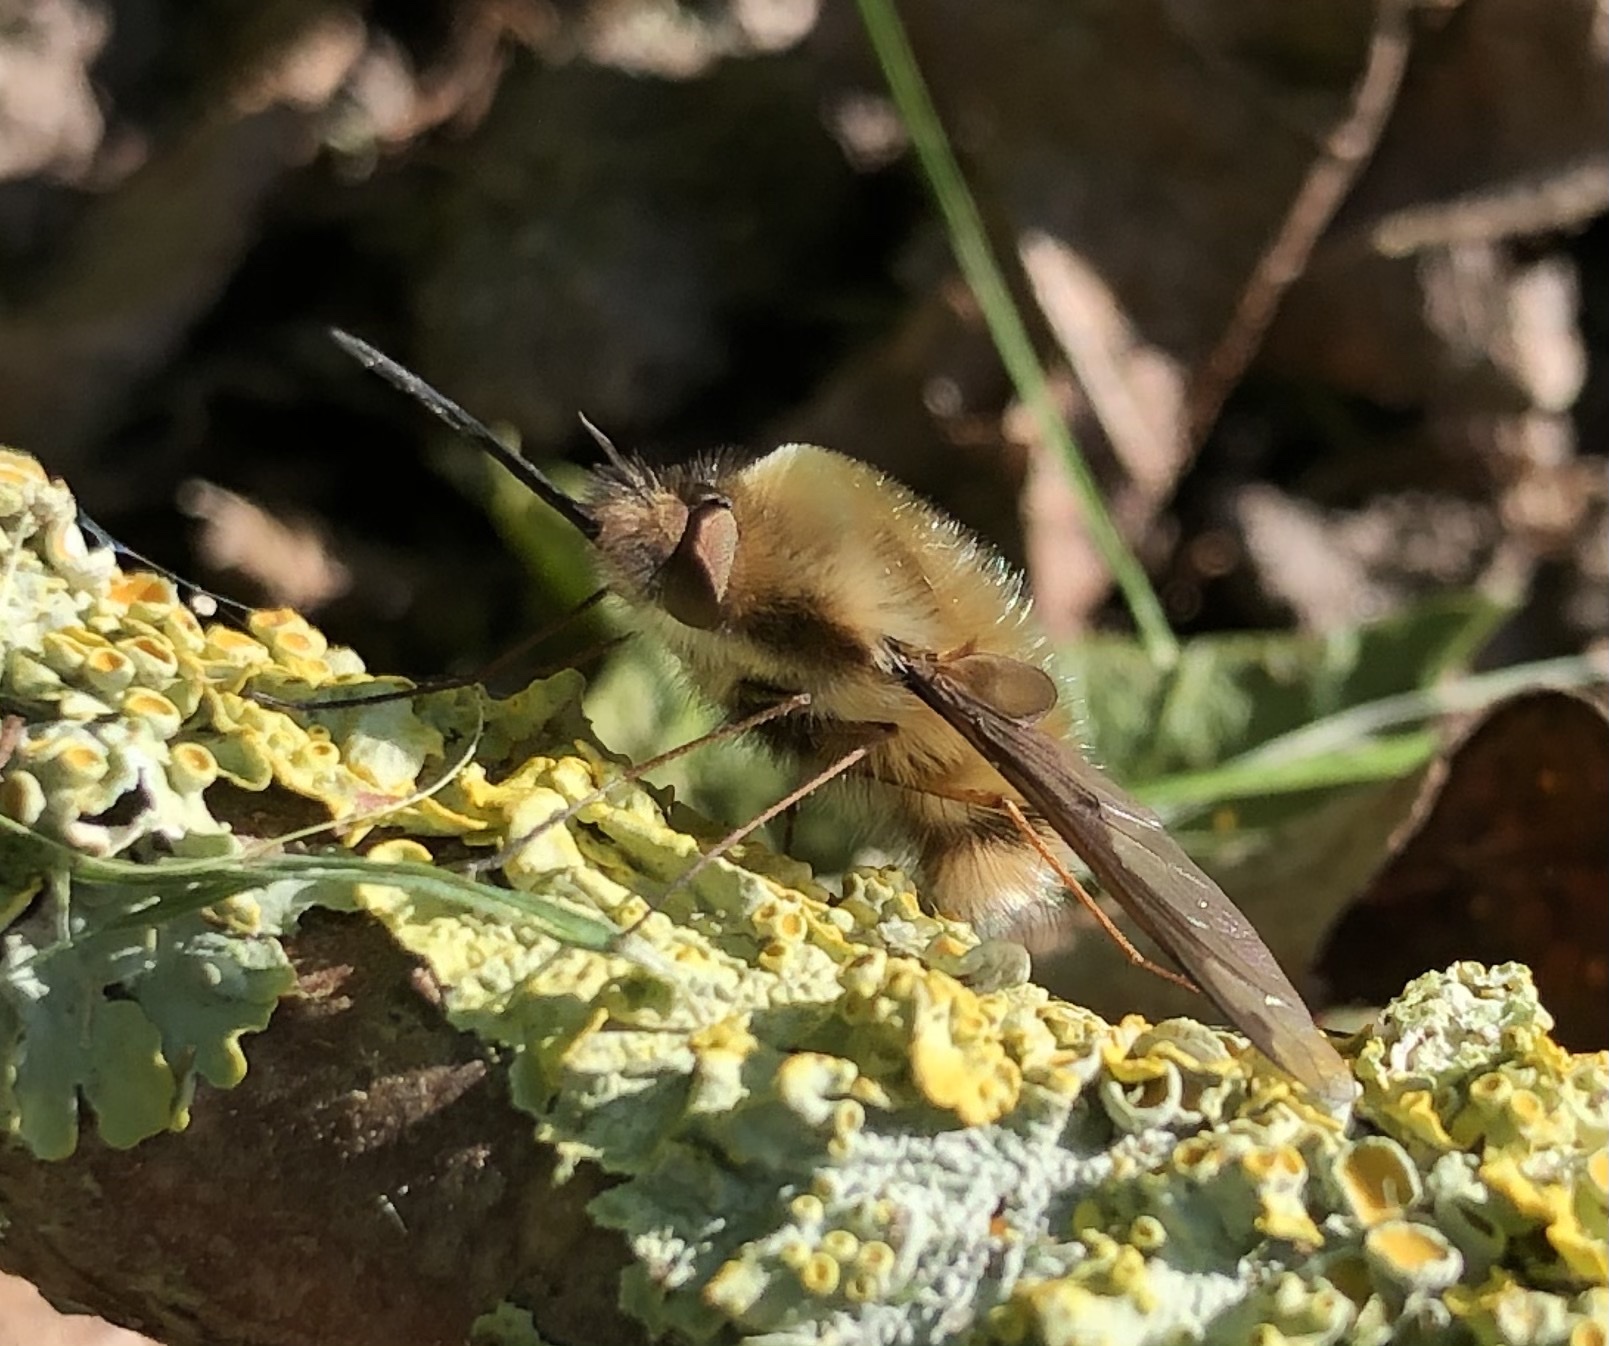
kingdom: Animalia
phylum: Arthropoda
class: Insecta
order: Diptera
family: Bombyliidae
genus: Bombylius
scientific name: Bombylius major
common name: Bee fly
